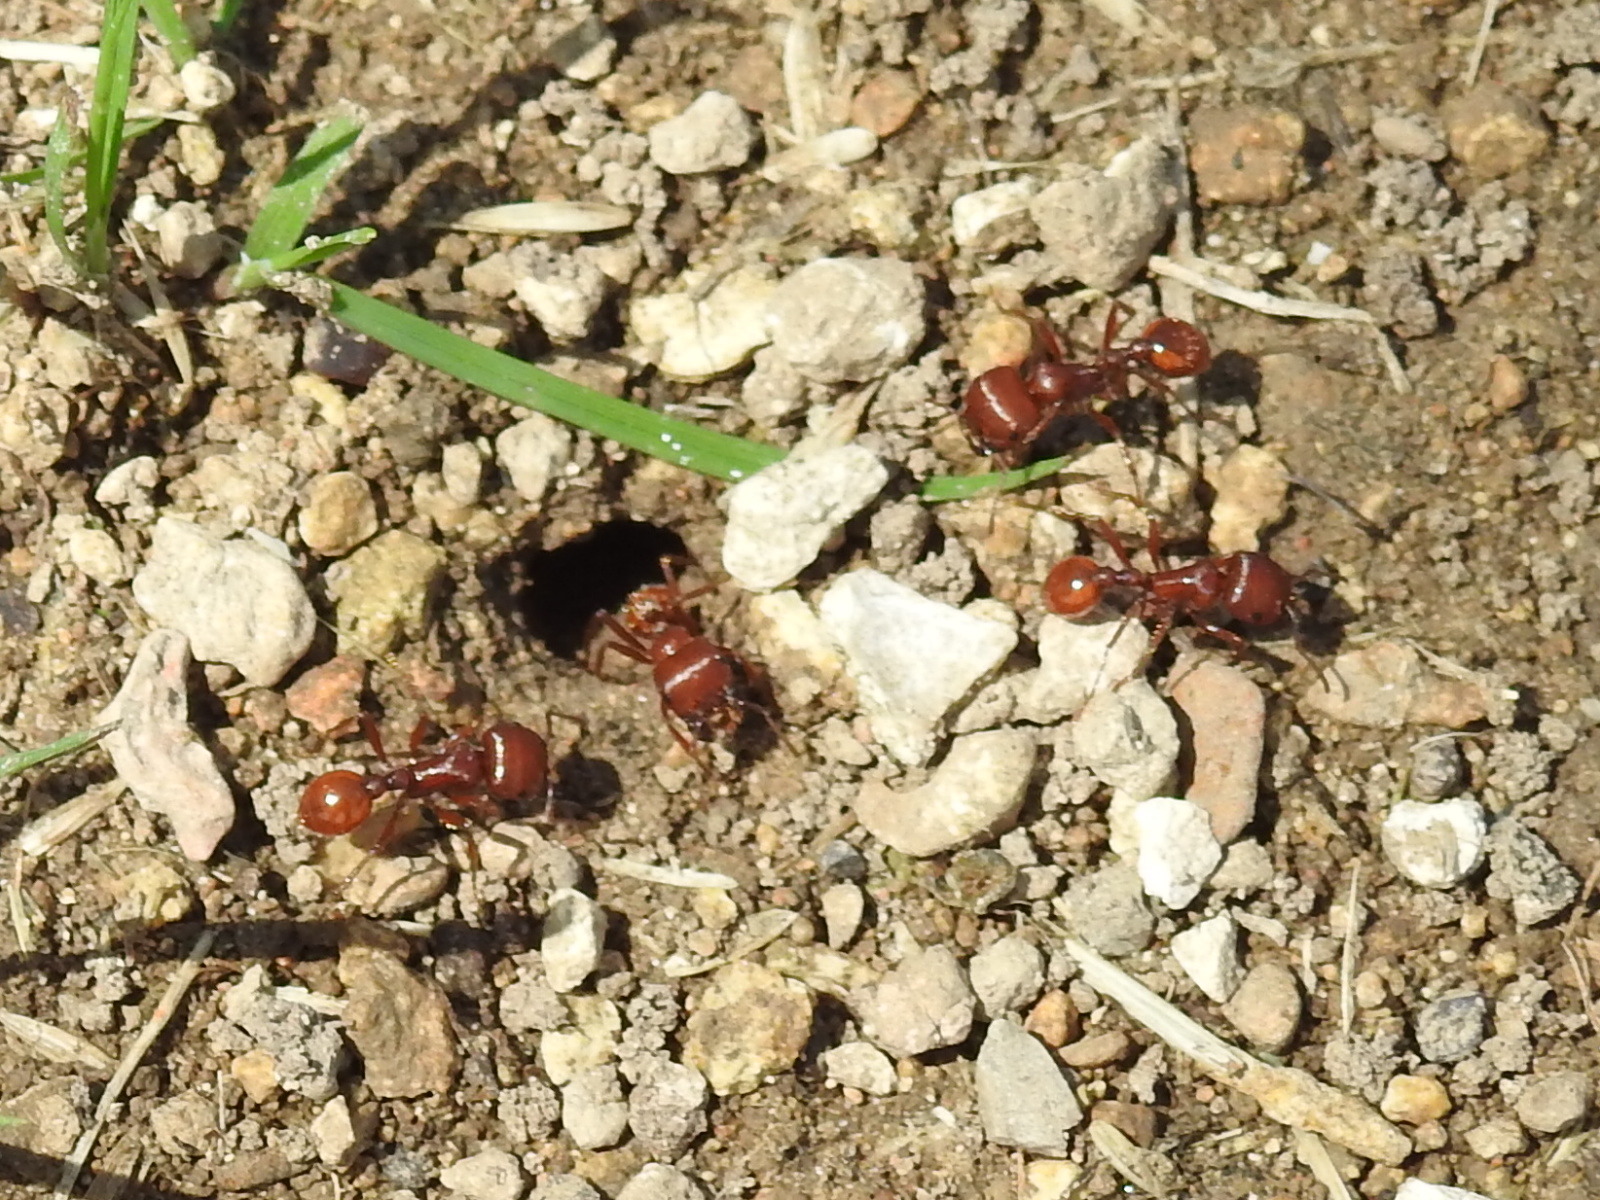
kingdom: Animalia
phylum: Arthropoda
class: Insecta
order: Hymenoptera
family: Formicidae
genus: Pogonomyrmex
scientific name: Pogonomyrmex barbatus
